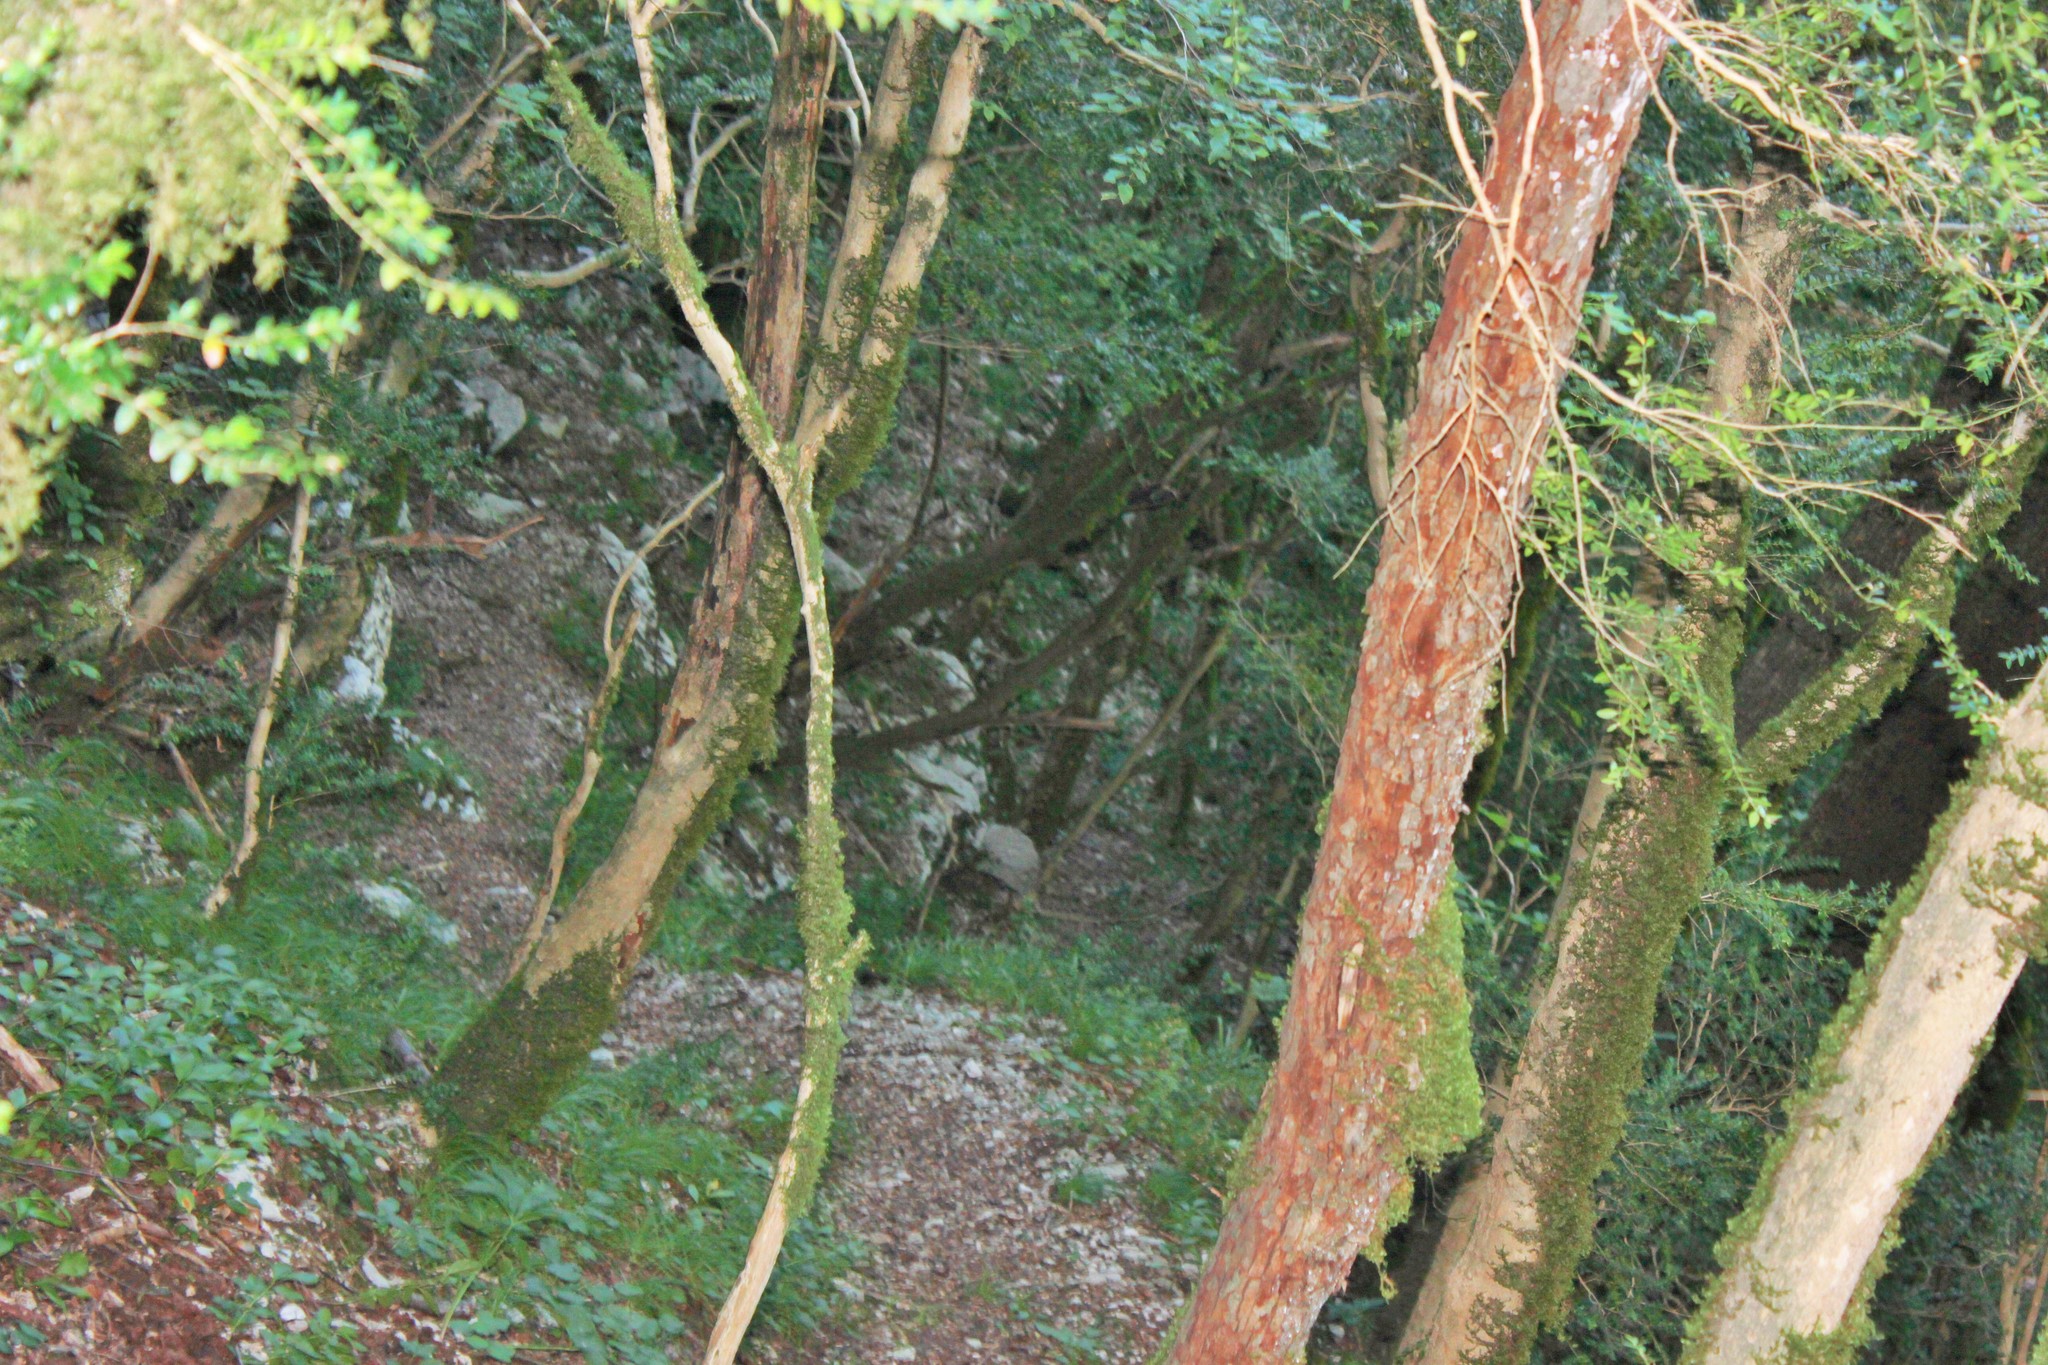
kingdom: Plantae
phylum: Tracheophyta
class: Magnoliopsida
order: Buxales
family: Buxaceae
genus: Buxus
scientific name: Buxus sempervirens
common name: Box
